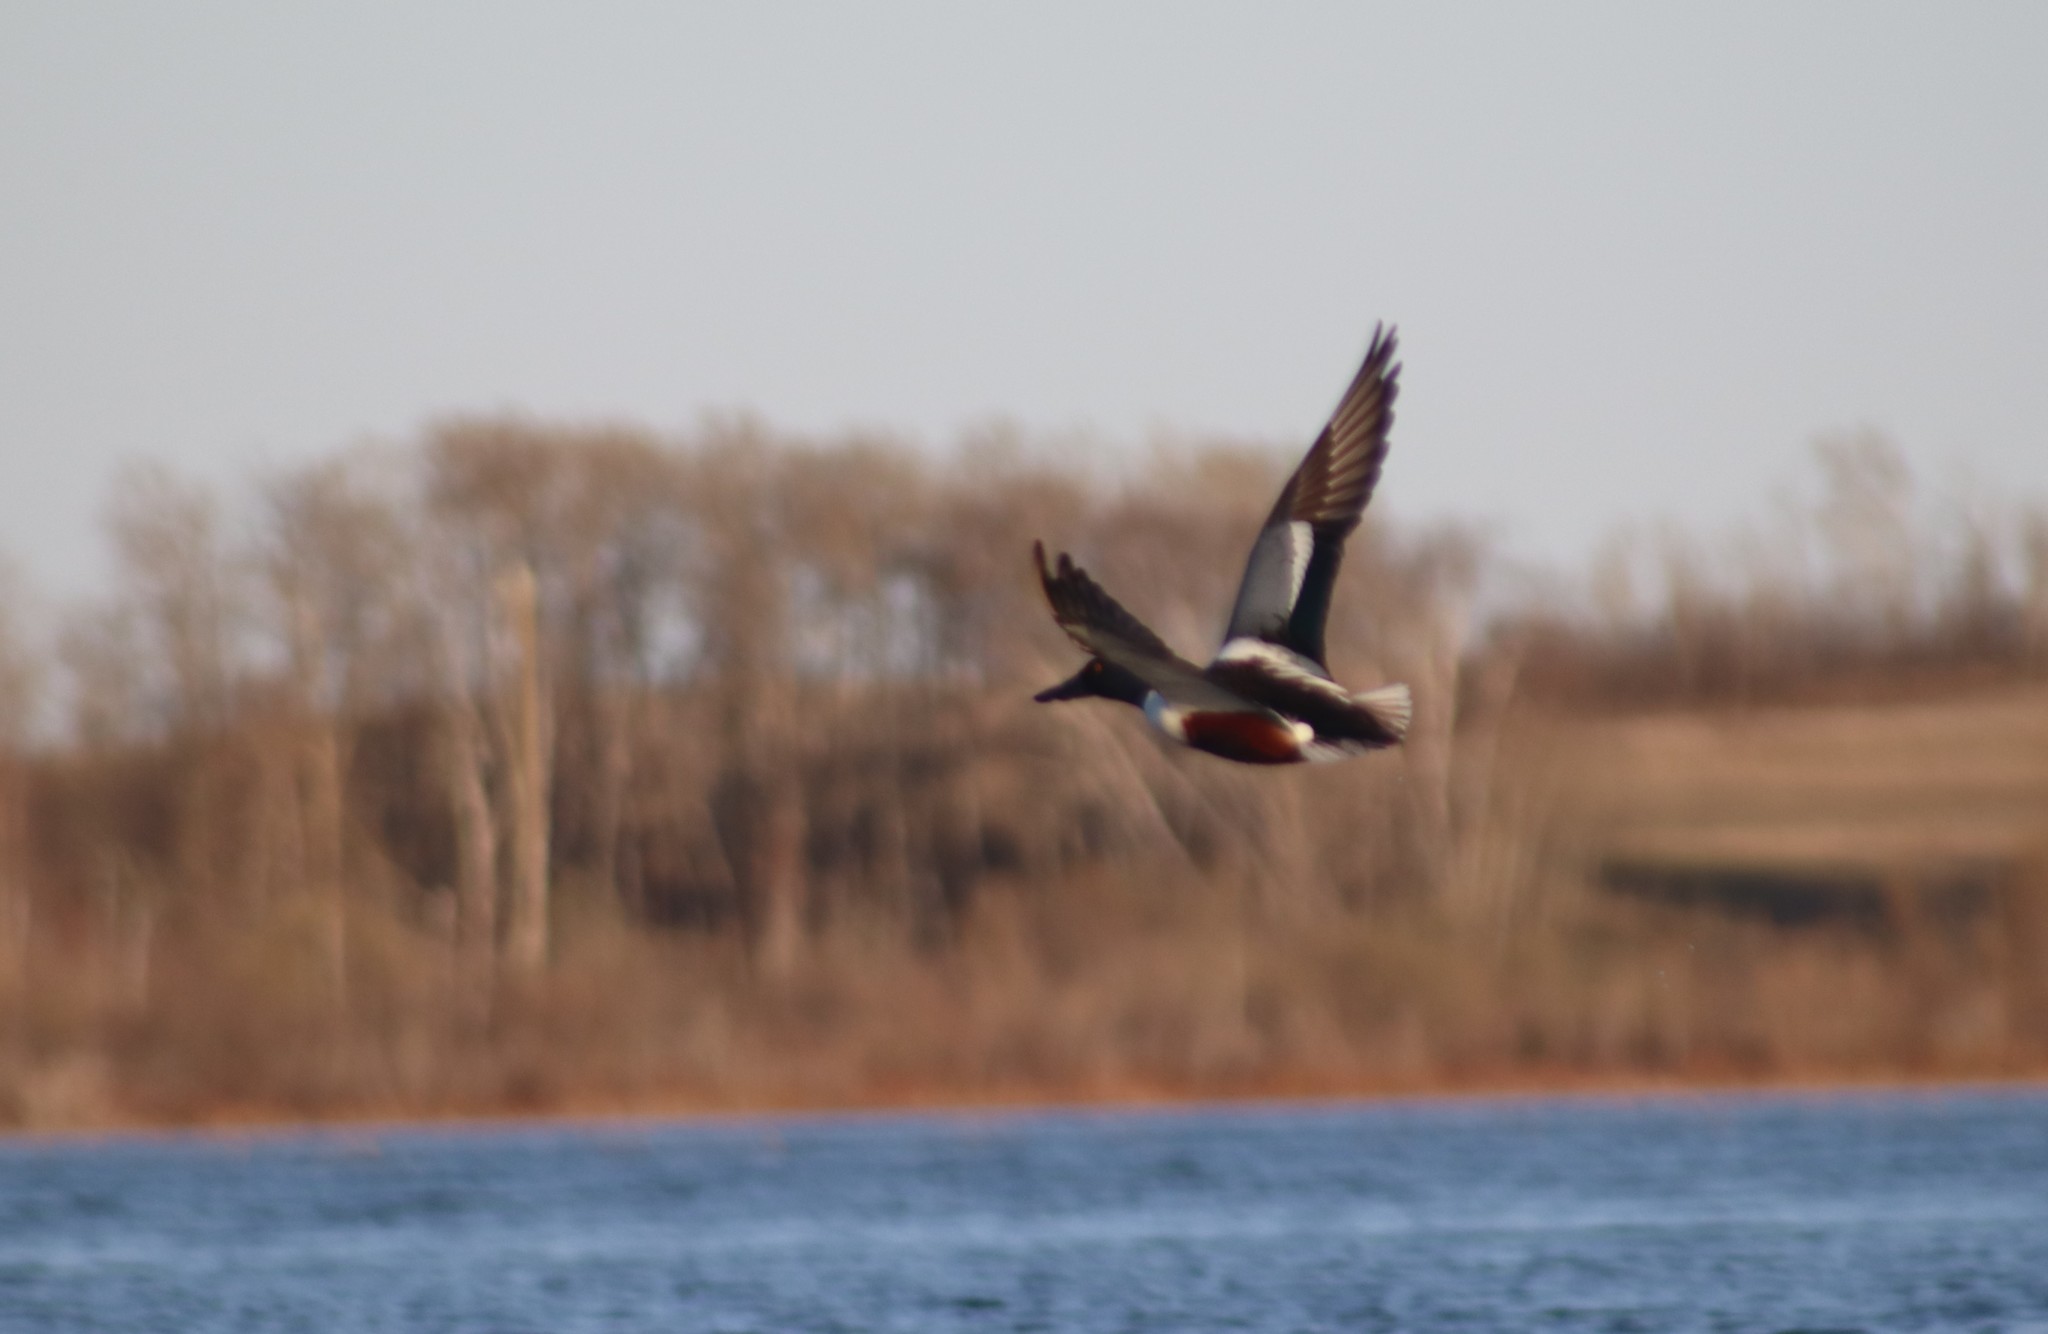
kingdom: Animalia
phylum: Chordata
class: Aves
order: Anseriformes
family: Anatidae
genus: Spatula
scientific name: Spatula clypeata
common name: Northern shoveler
